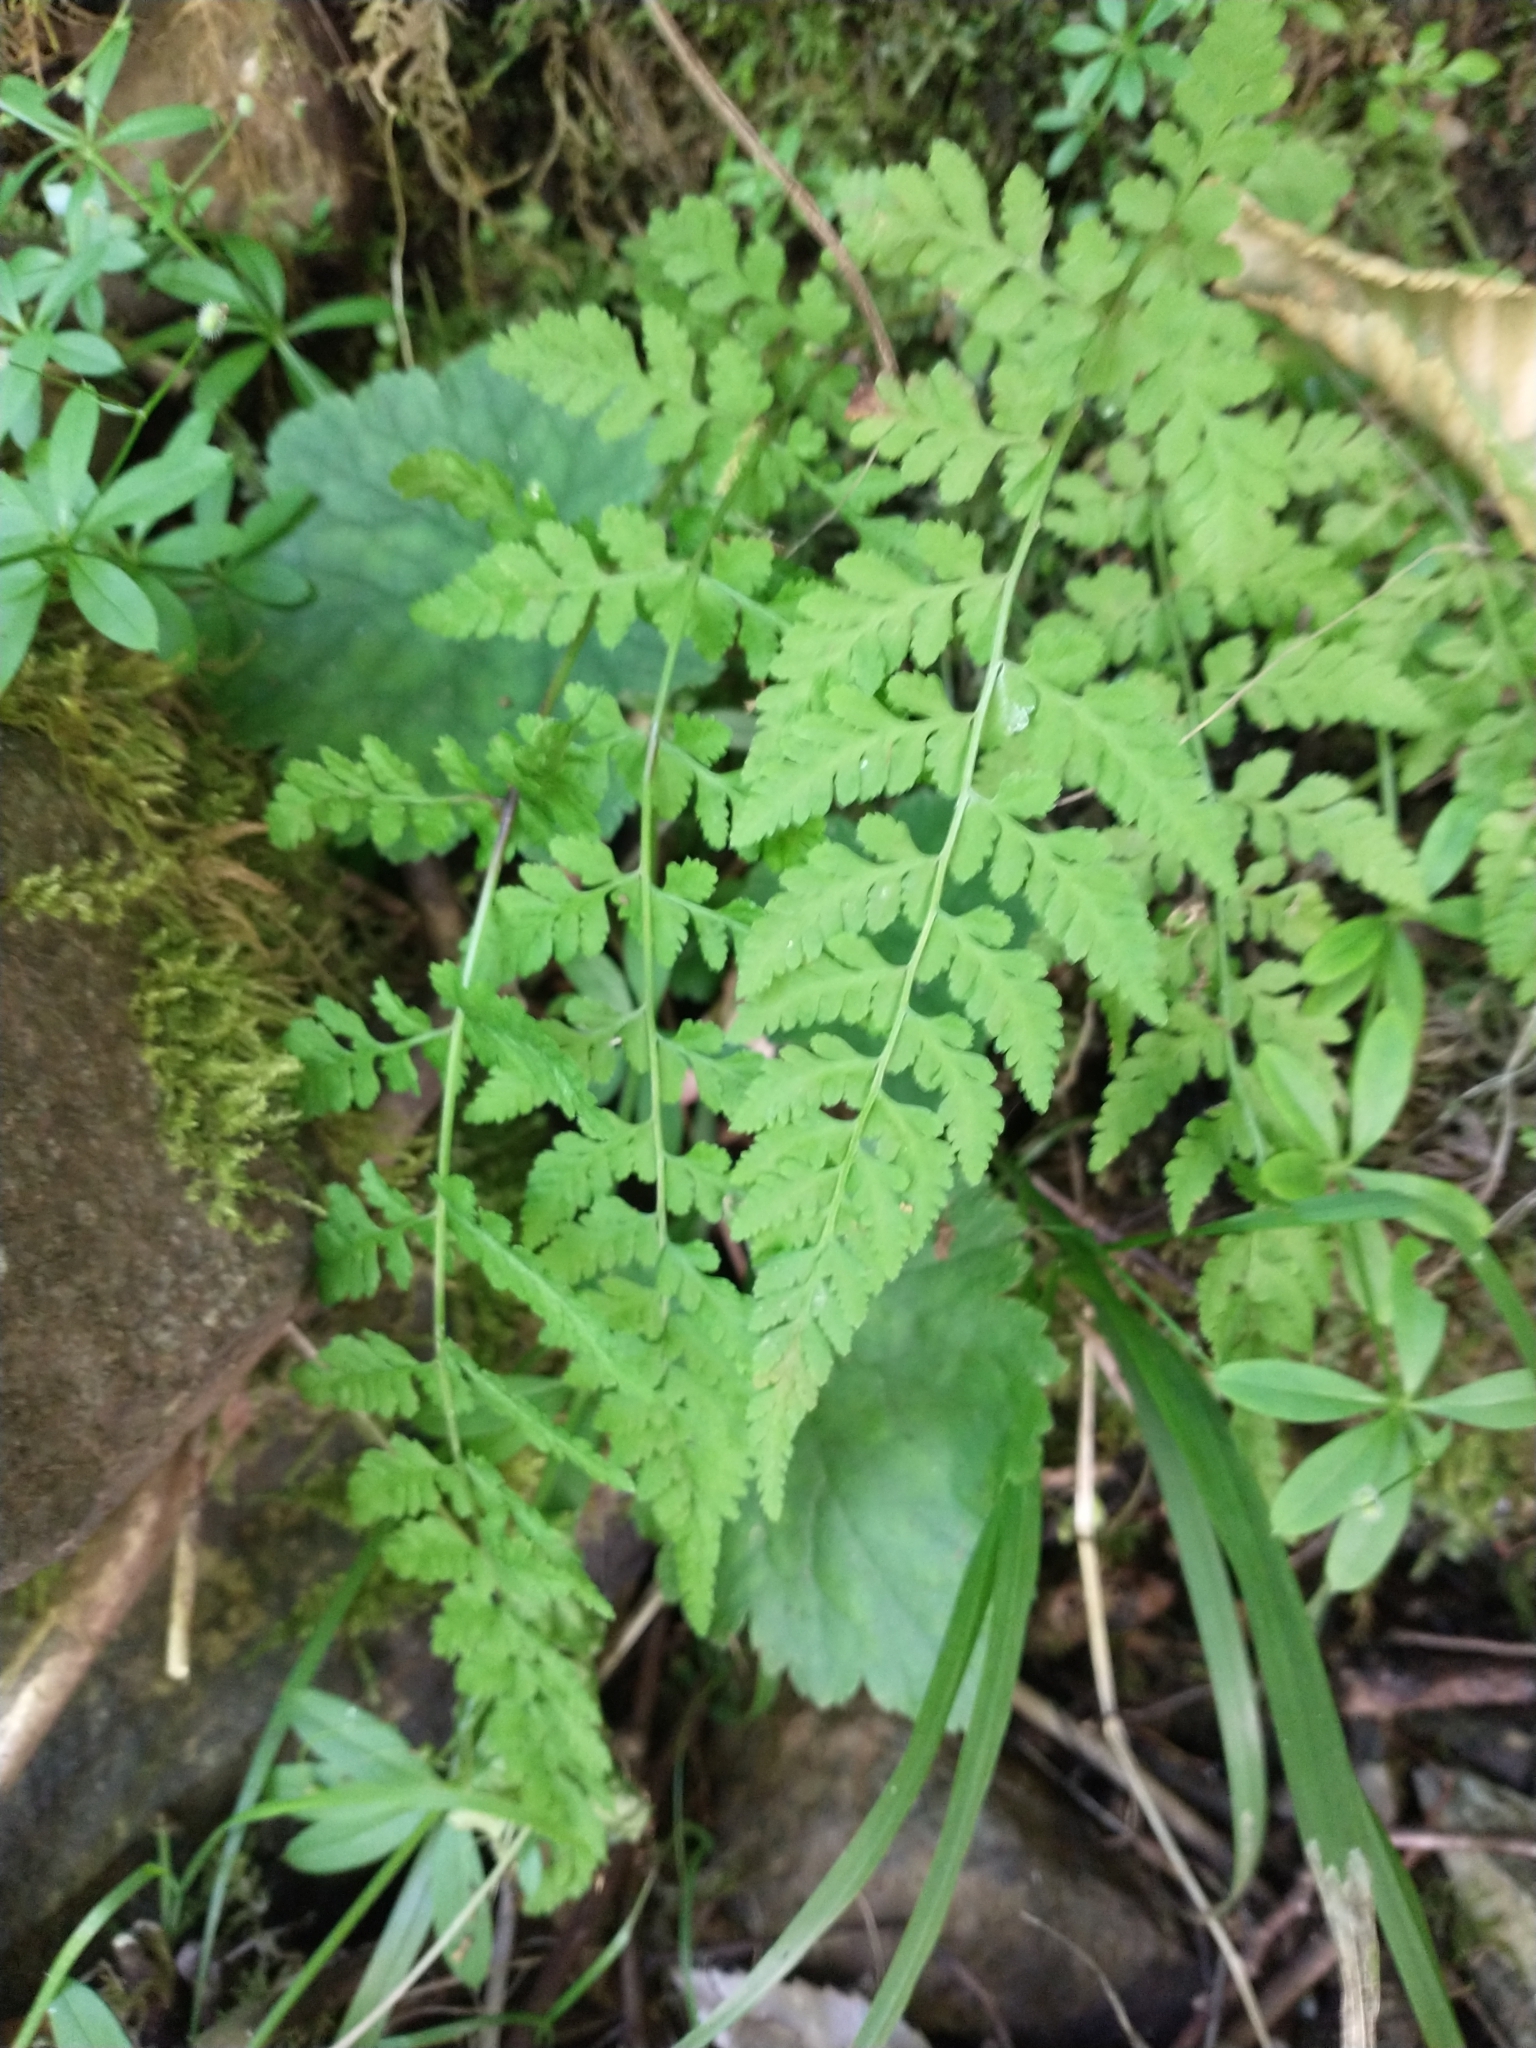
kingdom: Plantae
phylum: Tracheophyta
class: Polypodiopsida
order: Polypodiales
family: Cystopteridaceae
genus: Cystopteris
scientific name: Cystopteris fragilis
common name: Brittle bladder fern
